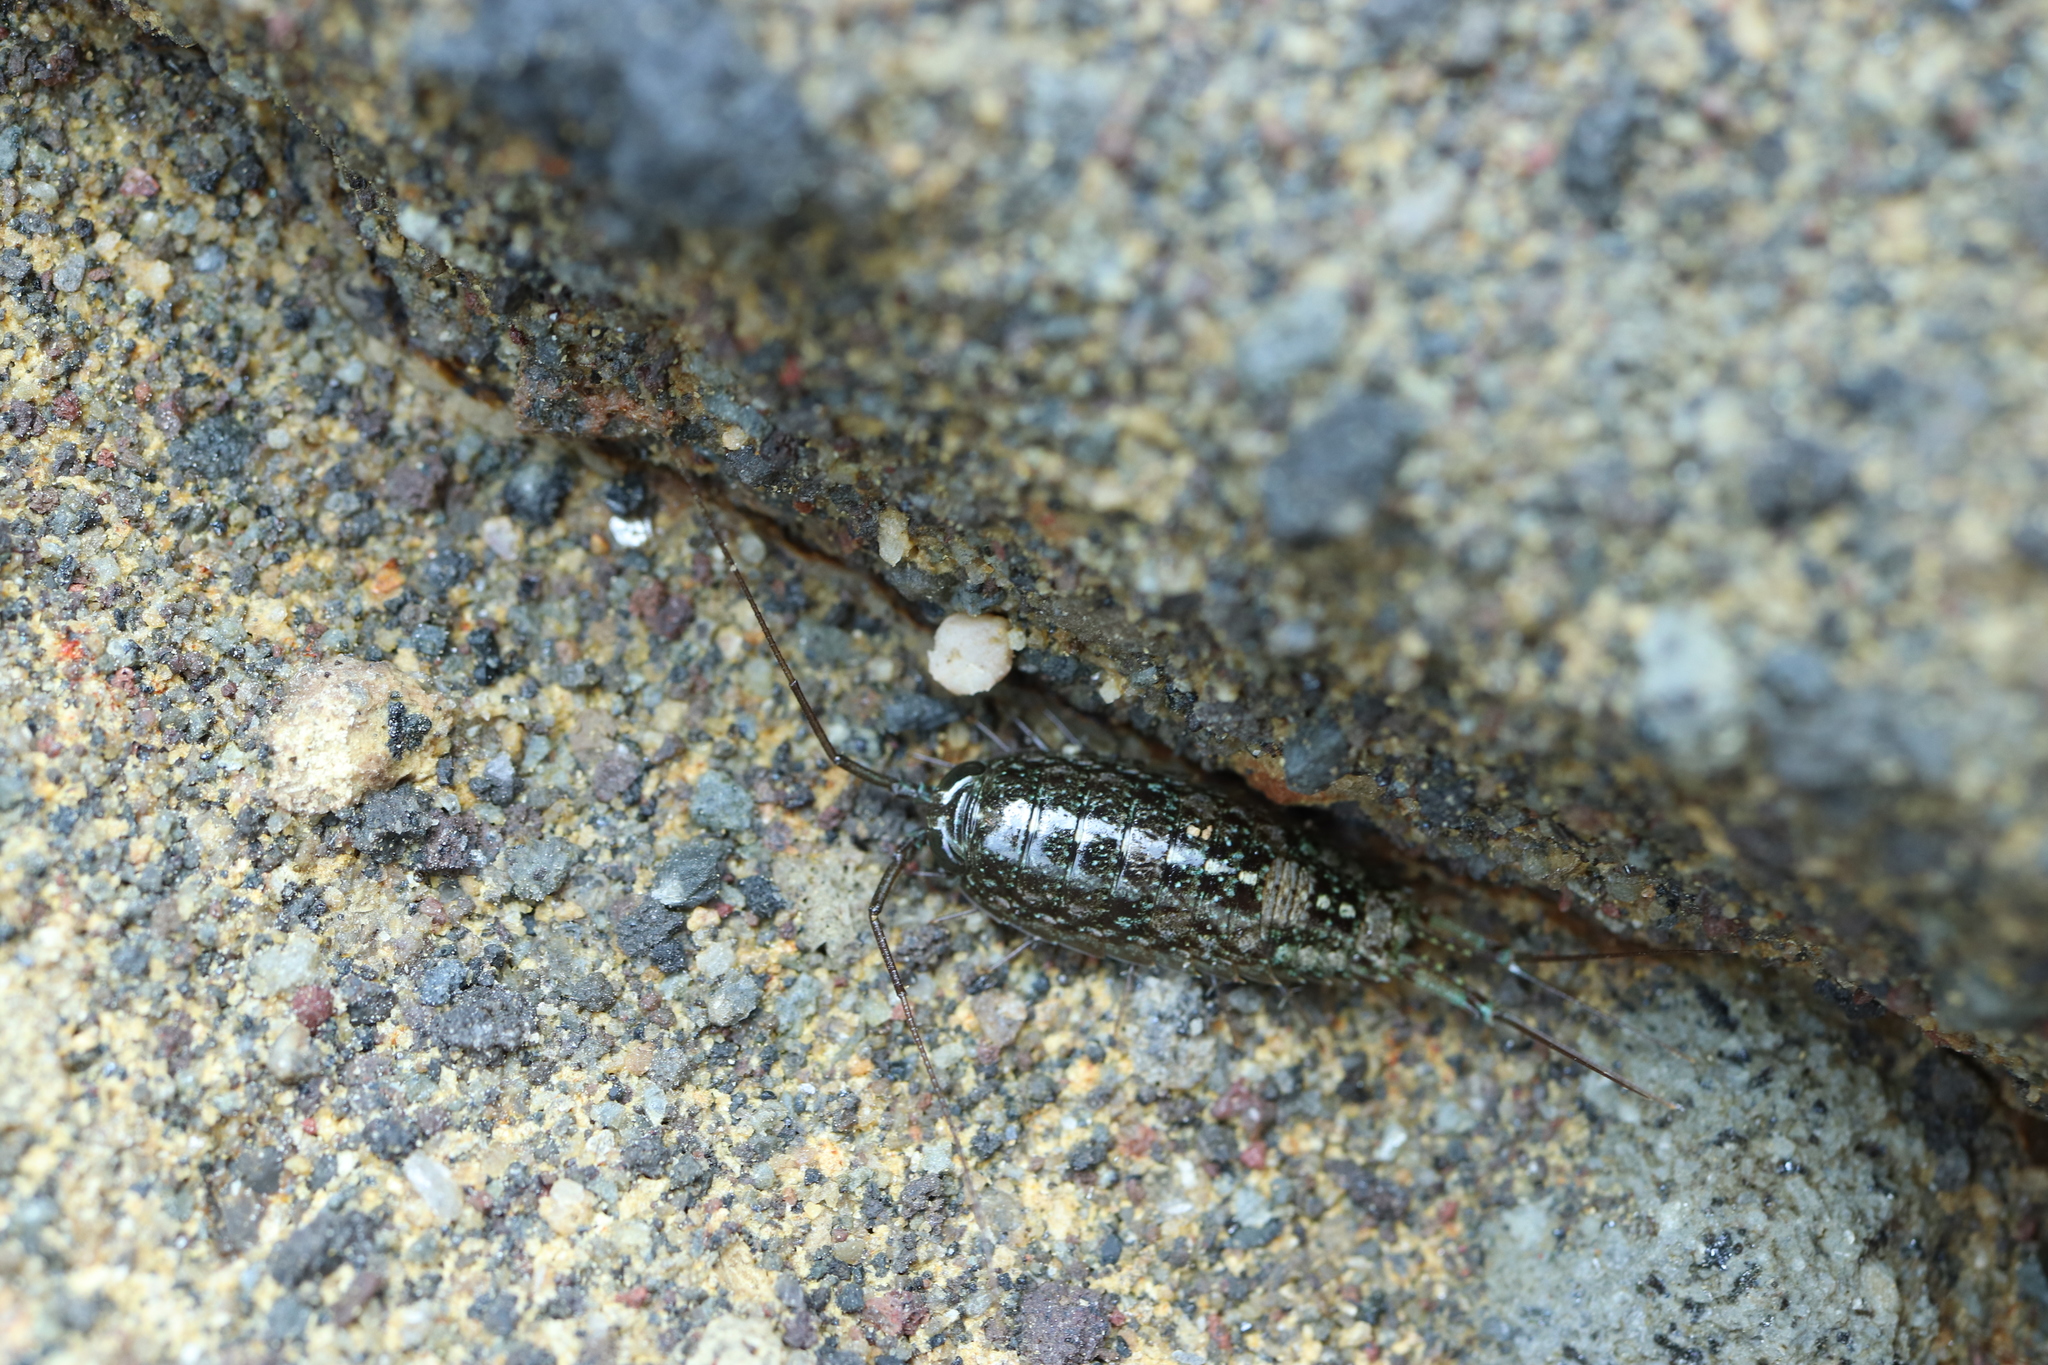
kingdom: Animalia
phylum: Arthropoda
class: Malacostraca
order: Isopoda
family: Ligiidae
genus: Ligia
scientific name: Ligia exotica
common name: Wharf roach
